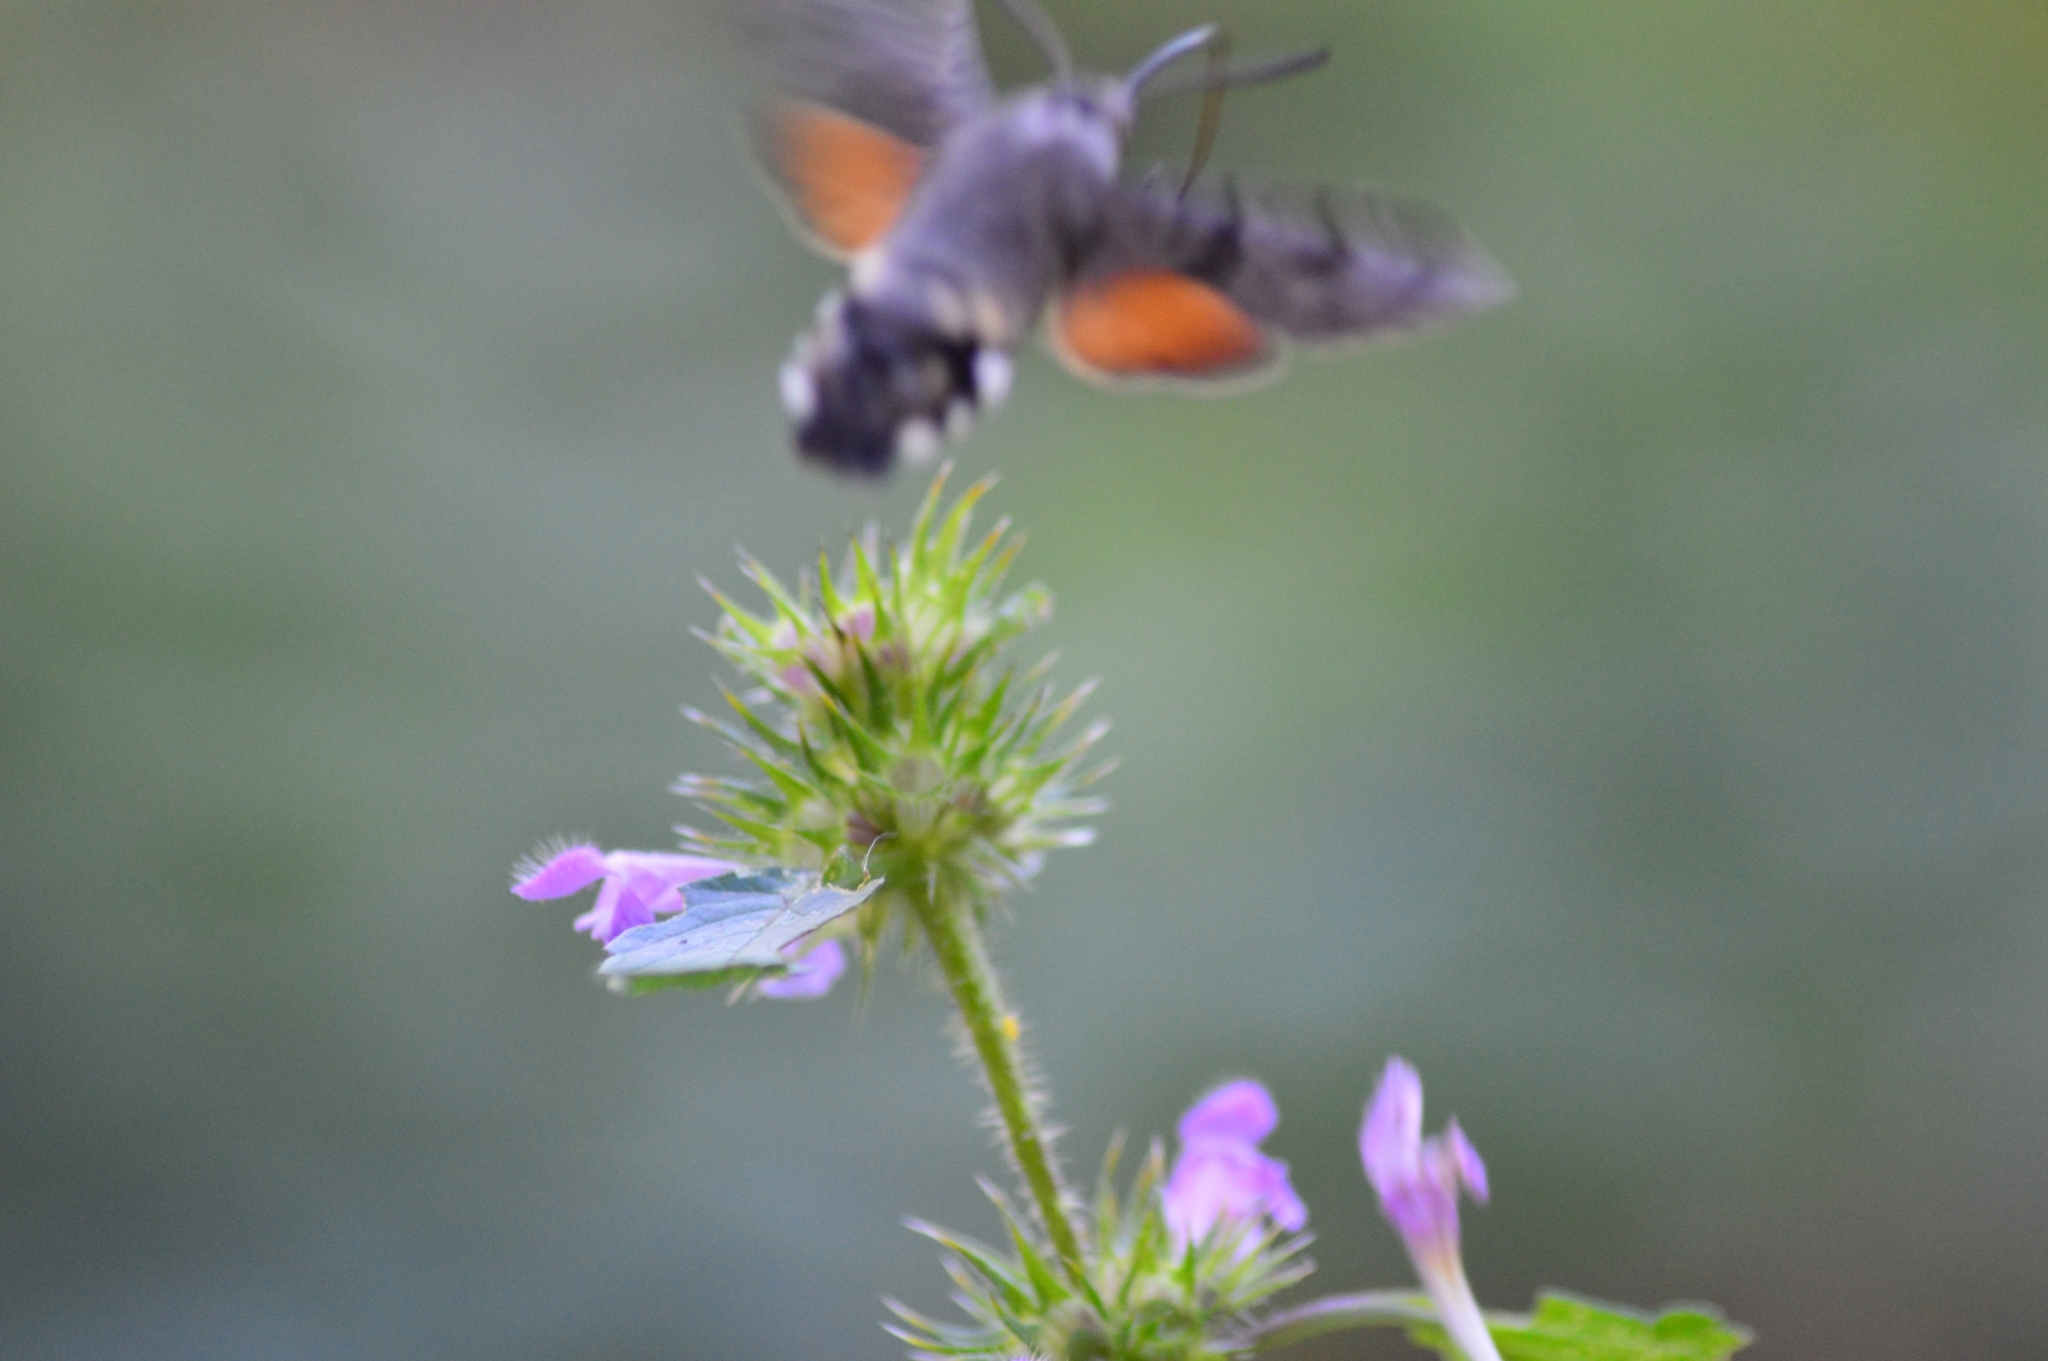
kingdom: Animalia
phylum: Arthropoda
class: Insecta
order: Lepidoptera
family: Sphingidae
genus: Macroglossum
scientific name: Macroglossum stellatarum
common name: Humming-bird hawk-moth
